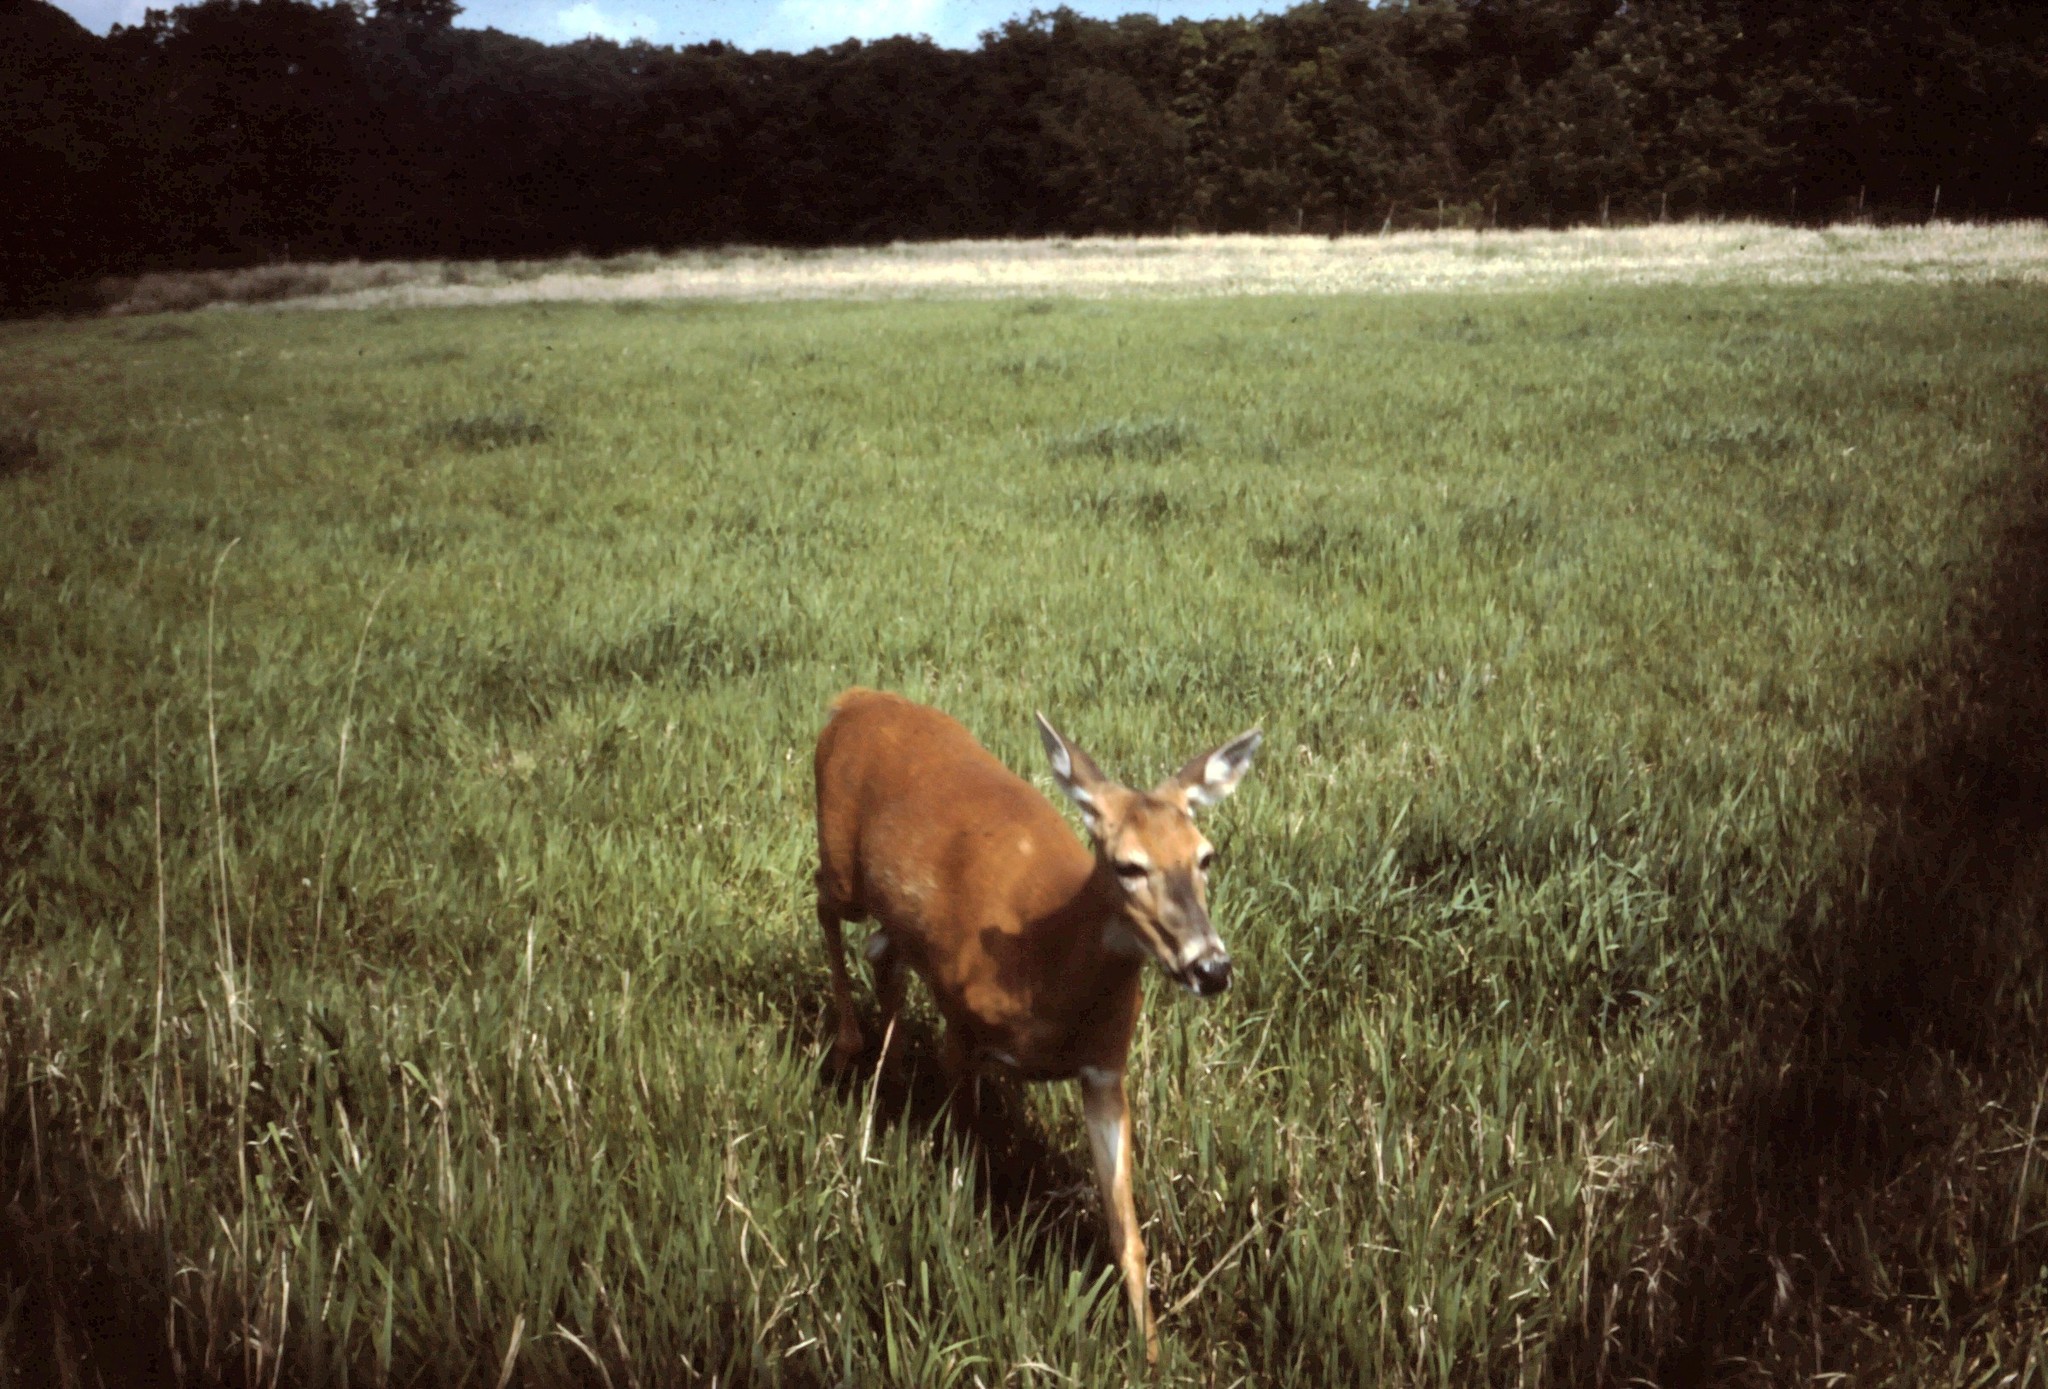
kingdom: Animalia
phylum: Chordata
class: Mammalia
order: Artiodactyla
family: Cervidae
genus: Odocoileus
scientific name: Odocoileus virginianus
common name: White-tailed deer
